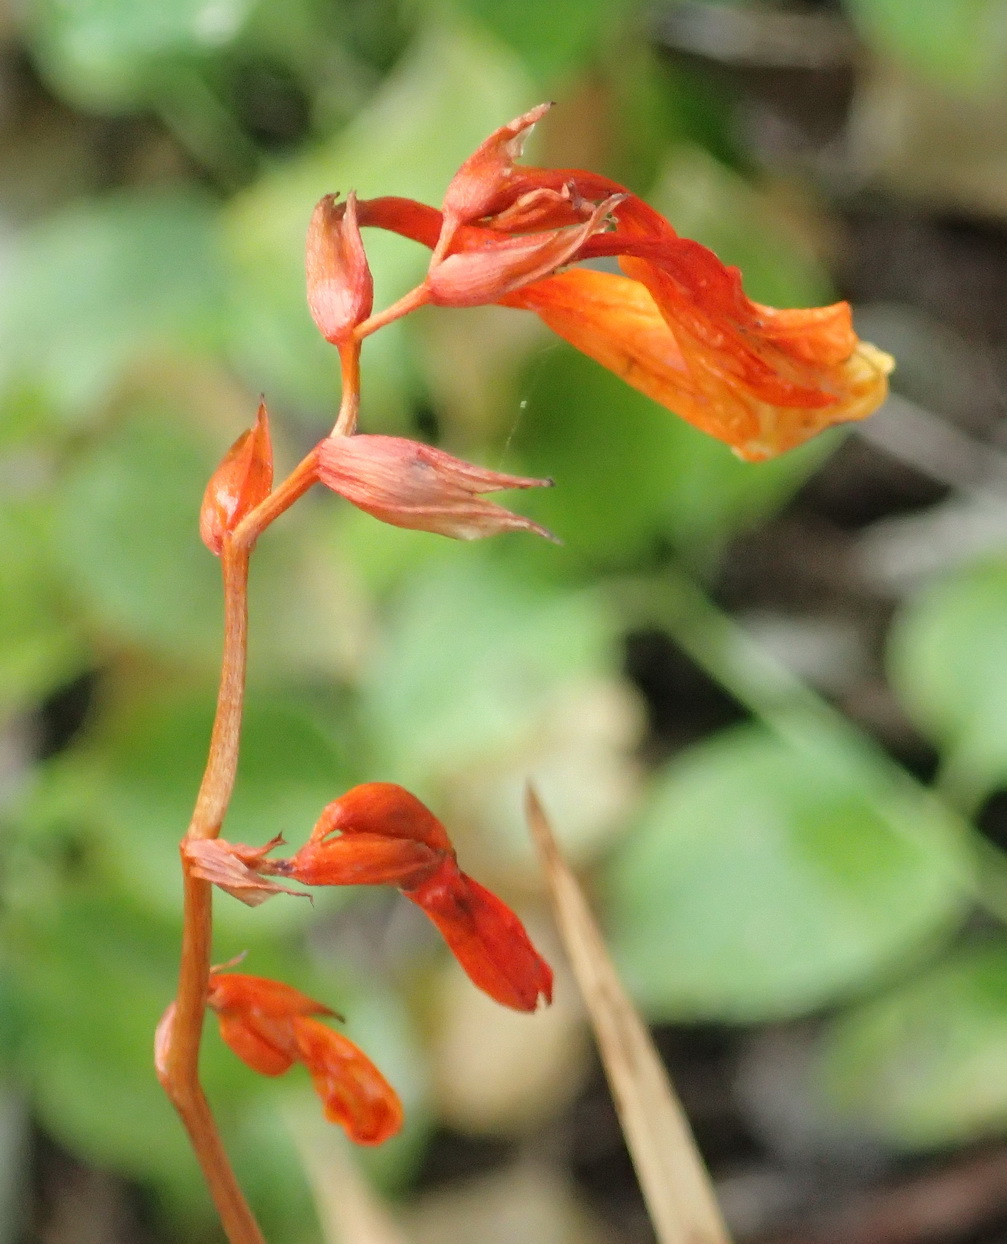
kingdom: Plantae
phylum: Tracheophyta
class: Liliopsida
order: Asparagales
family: Iridaceae
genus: Crocosmia
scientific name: Crocosmia aurea
